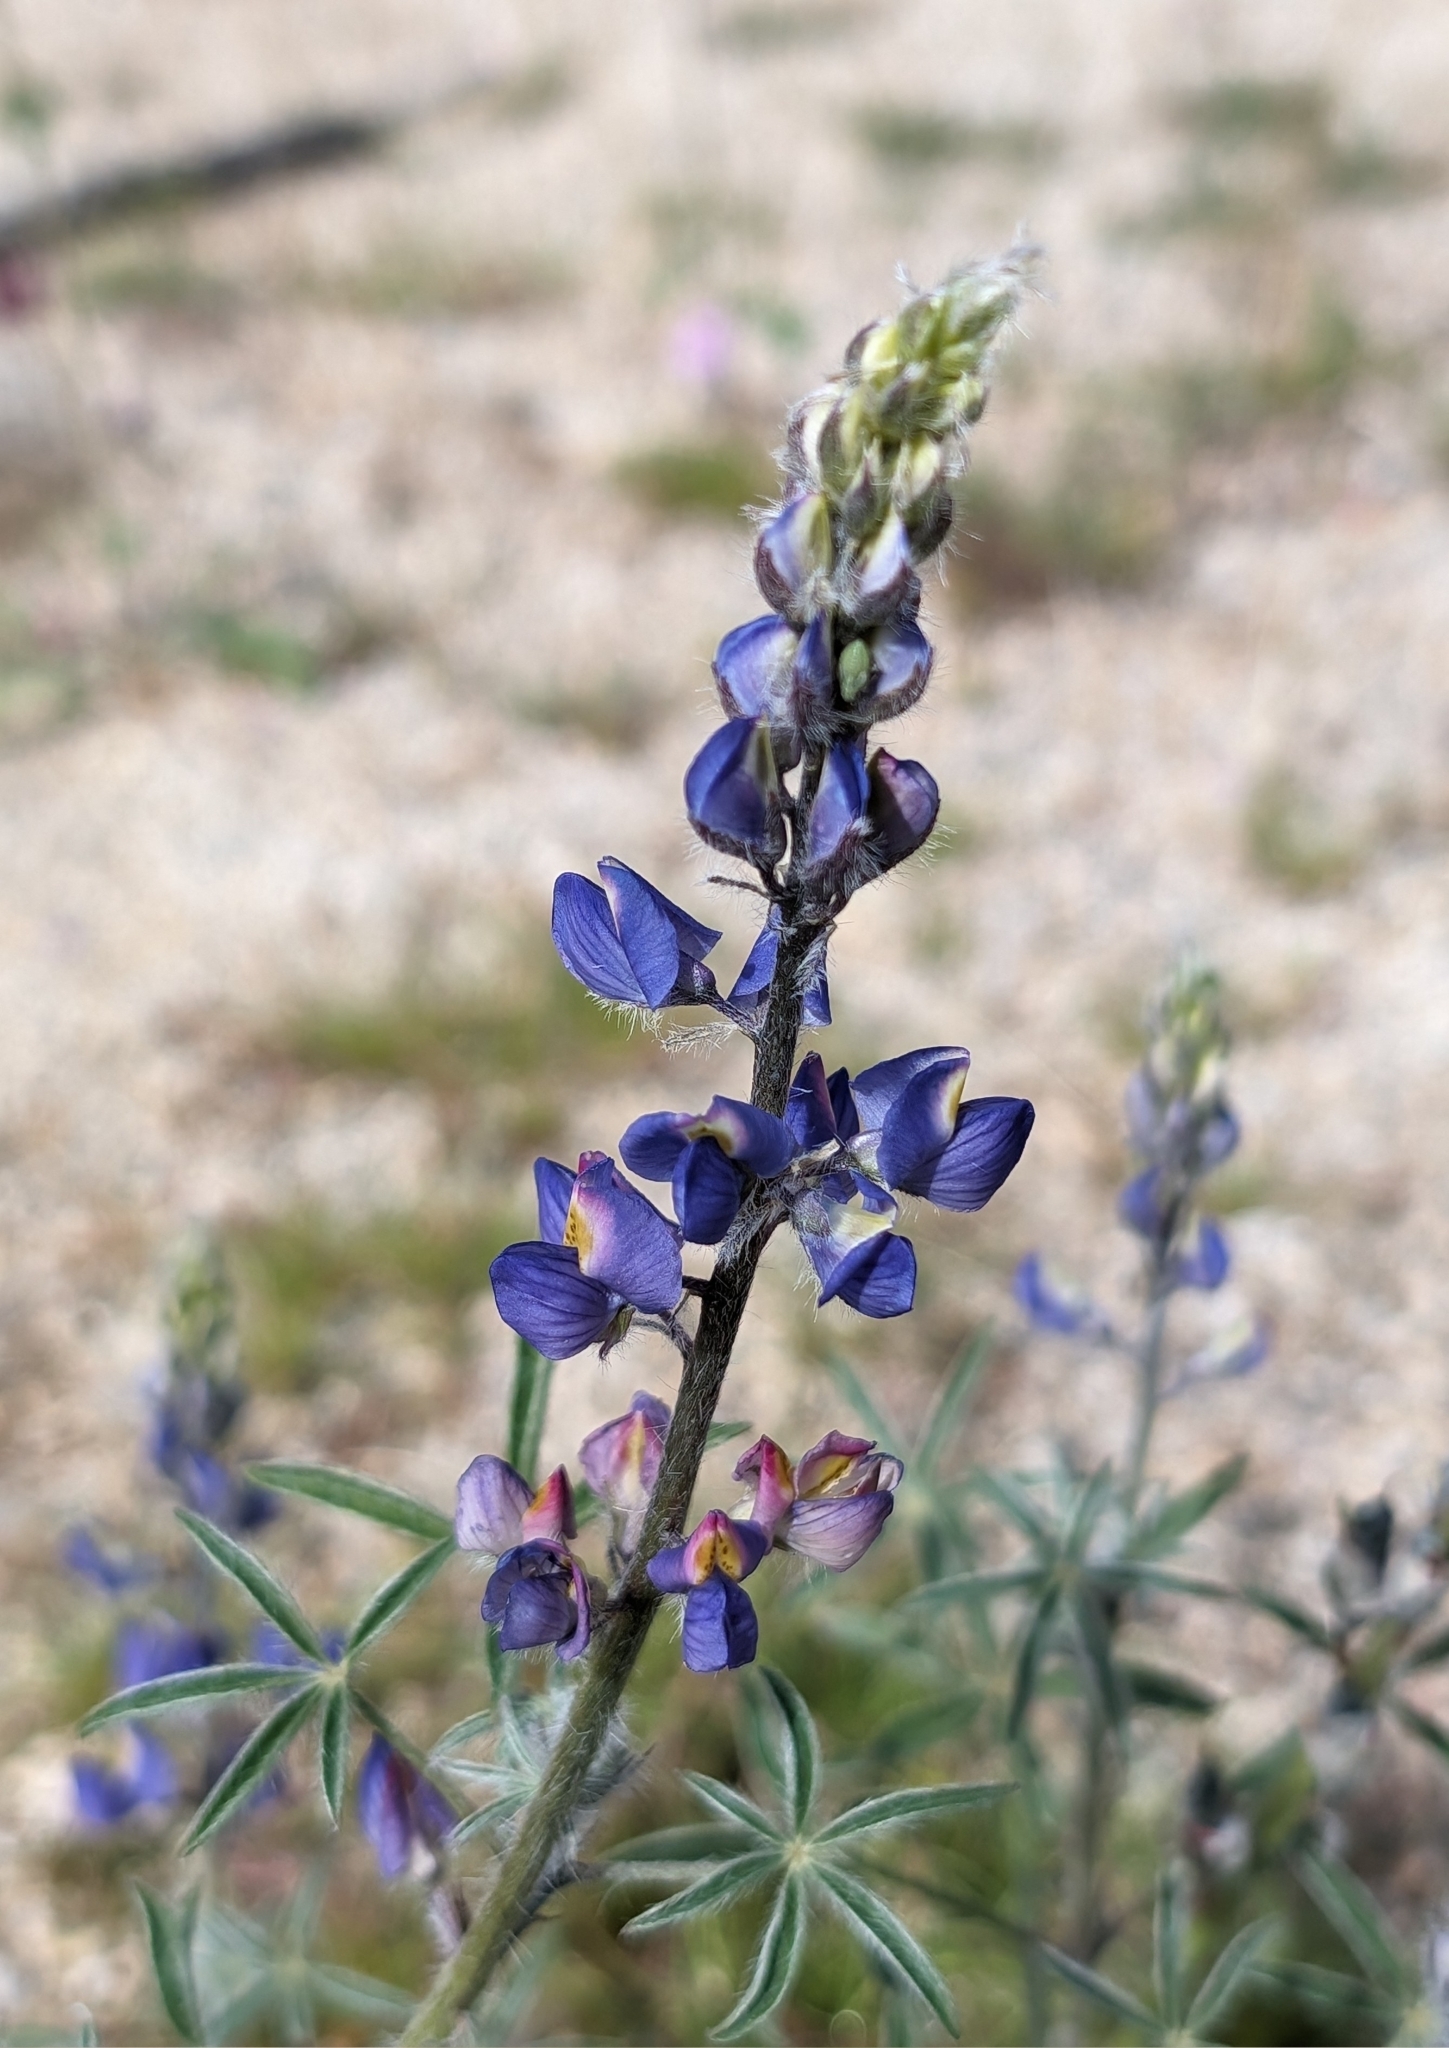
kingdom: Plantae
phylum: Tracheophyta
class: Magnoliopsida
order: Fabales
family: Fabaceae
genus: Lupinus
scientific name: Lupinus sparsiflorus
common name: Coulter's lupine
